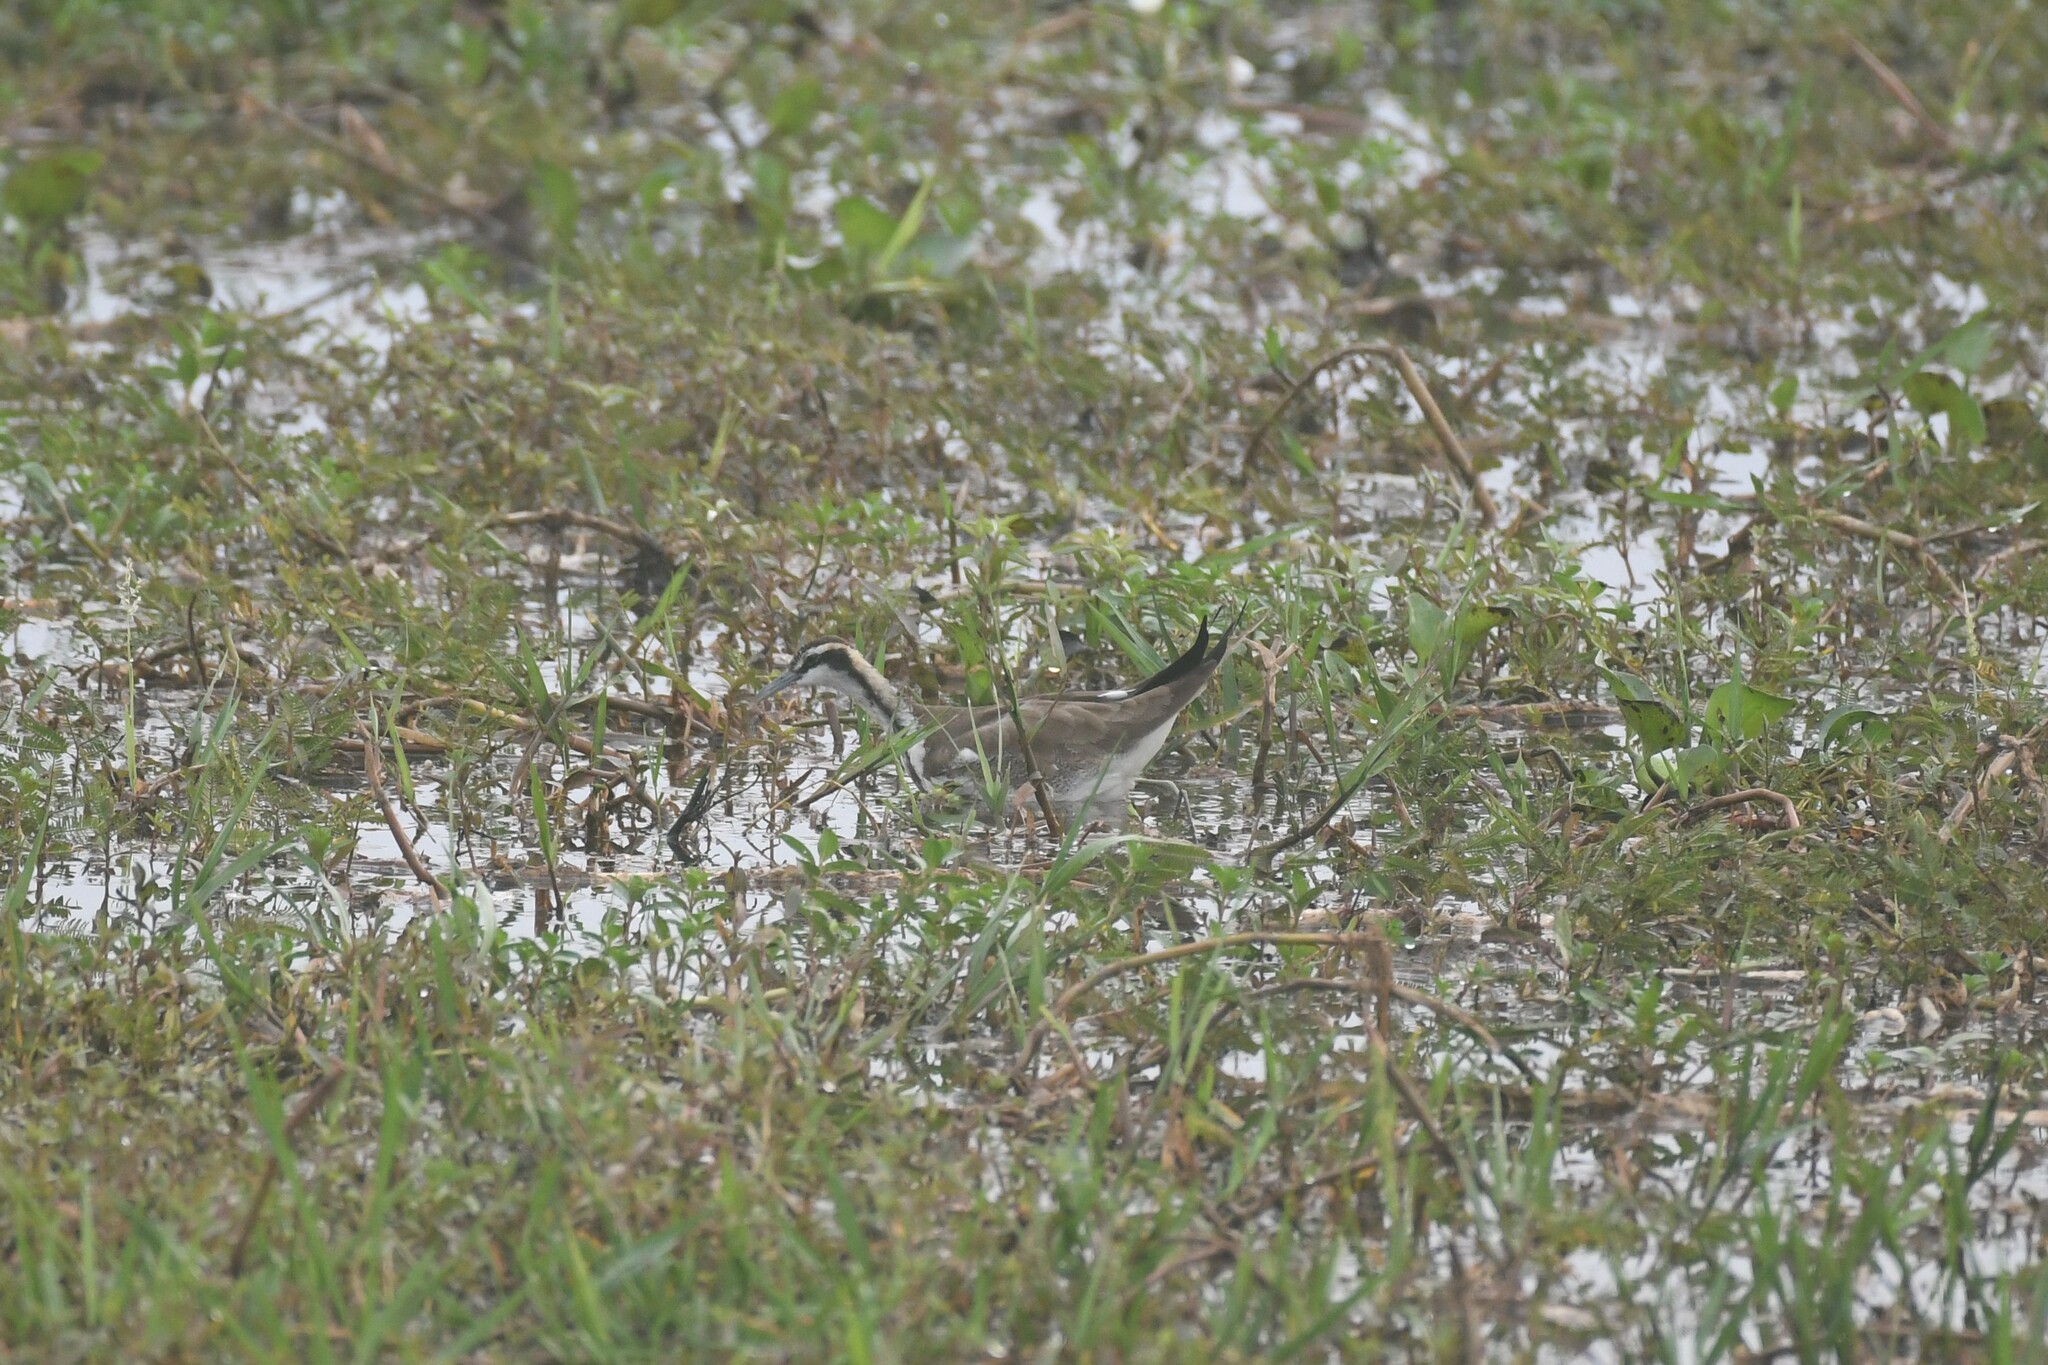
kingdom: Animalia
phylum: Chordata
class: Aves
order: Charadriiformes
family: Jacanidae
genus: Hydrophasianus
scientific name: Hydrophasianus chirurgus
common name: Pheasant-tailed jacana
